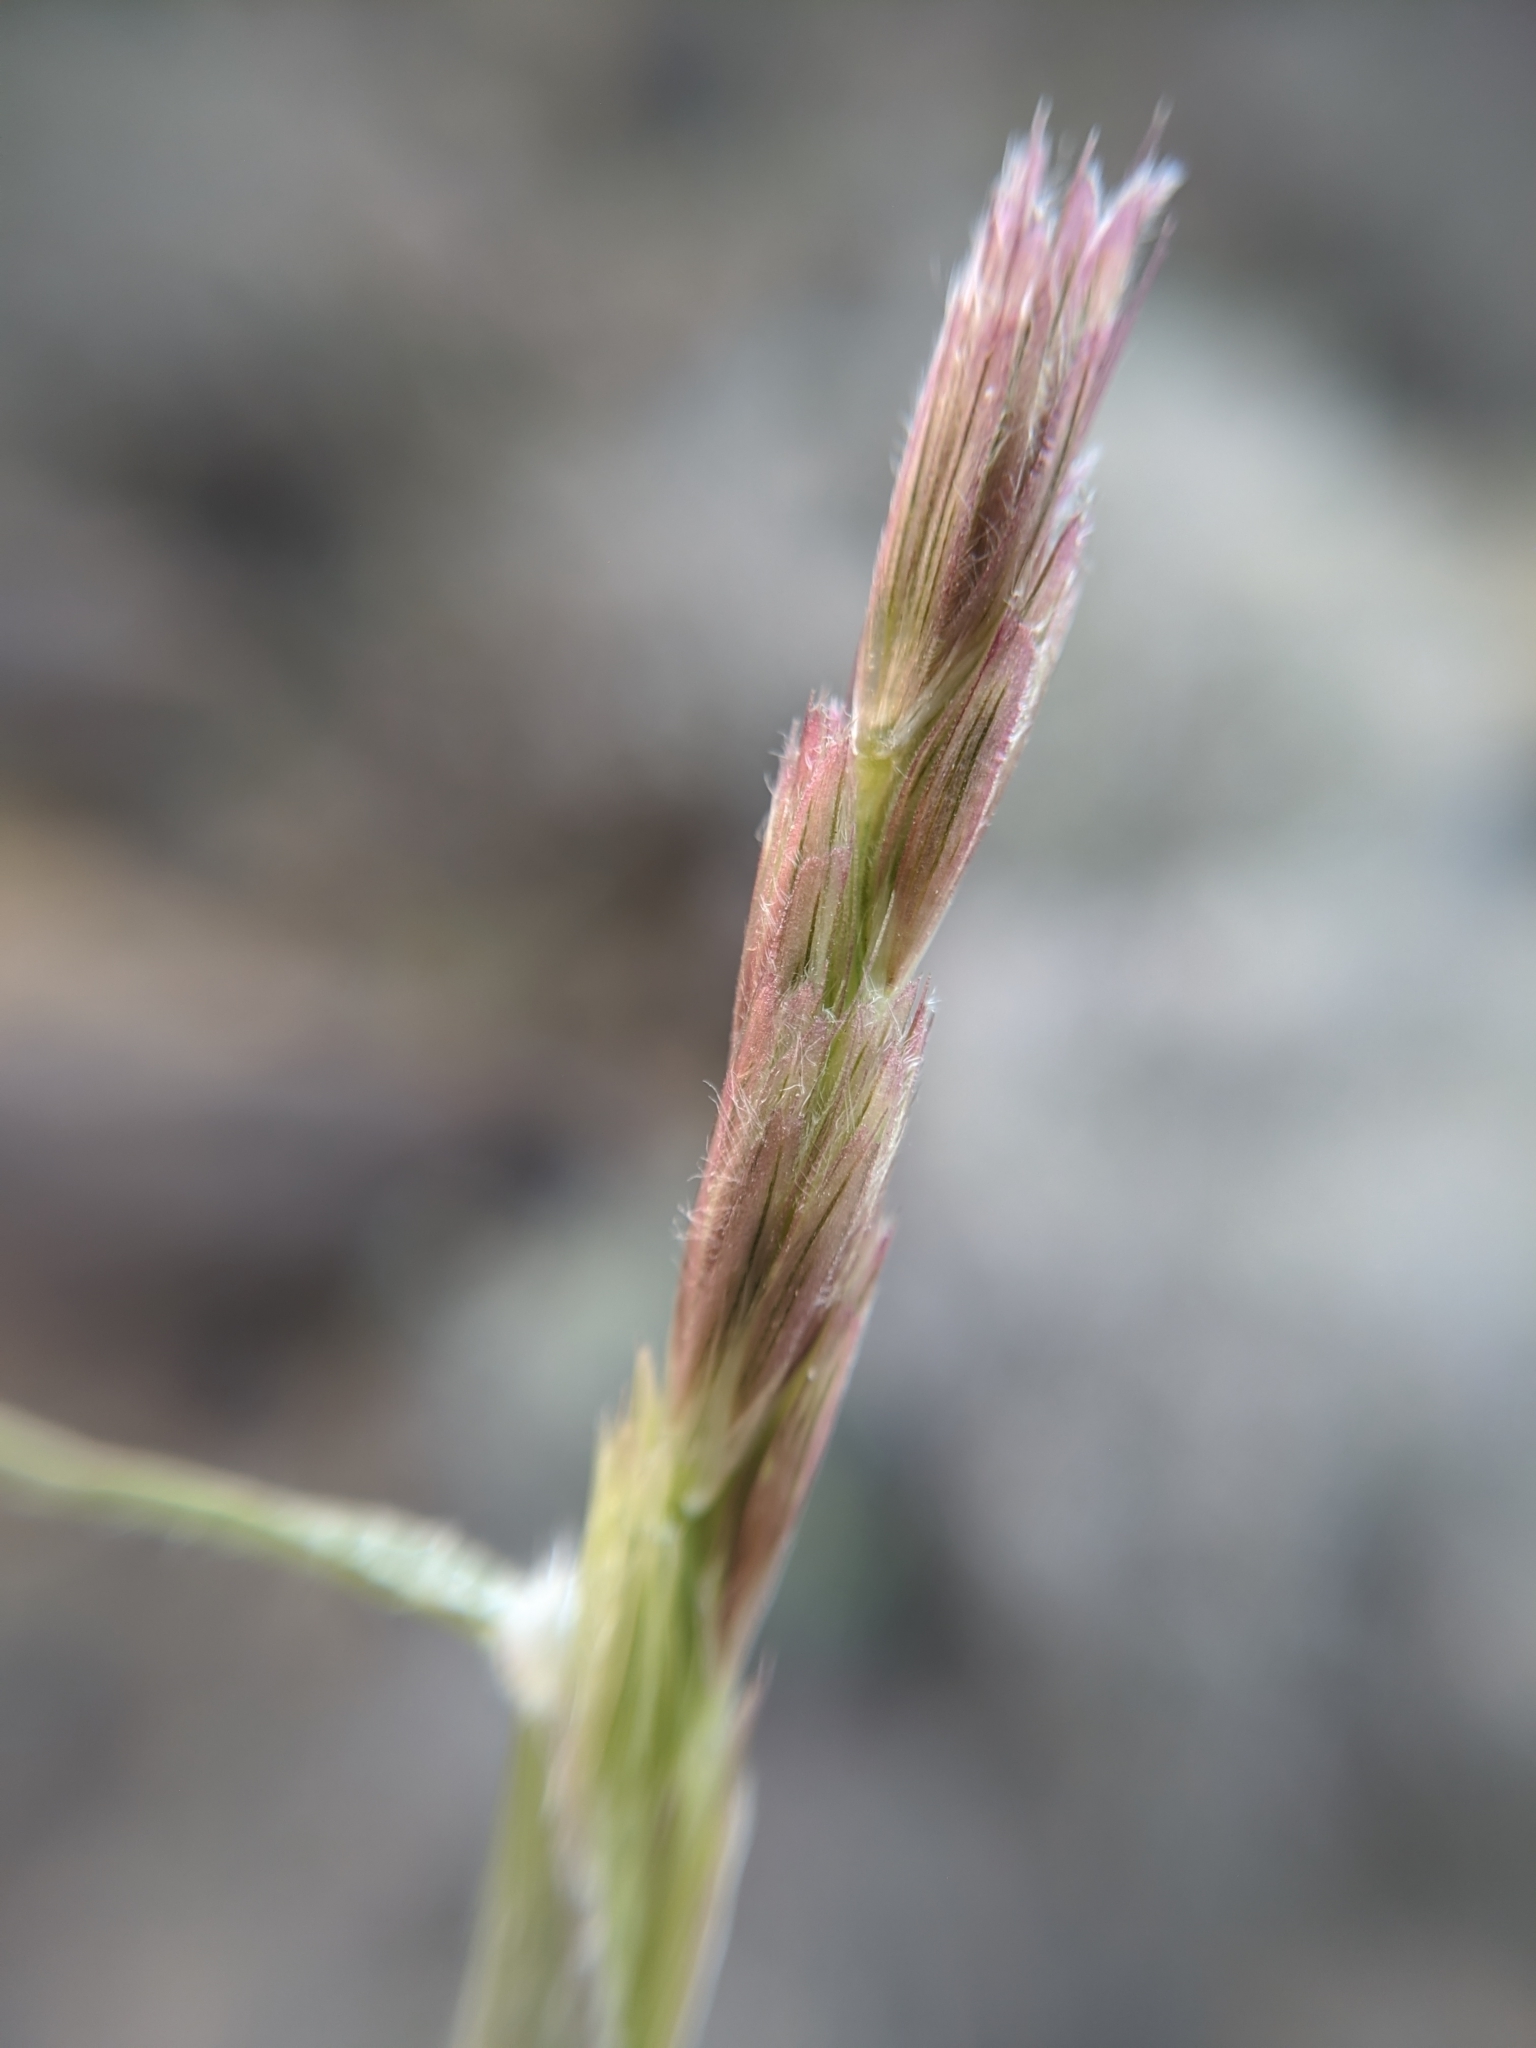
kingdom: Plantae
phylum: Tracheophyta
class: Liliopsida
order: Poales
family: Poaceae
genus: Hilaria
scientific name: Hilaria rigida
